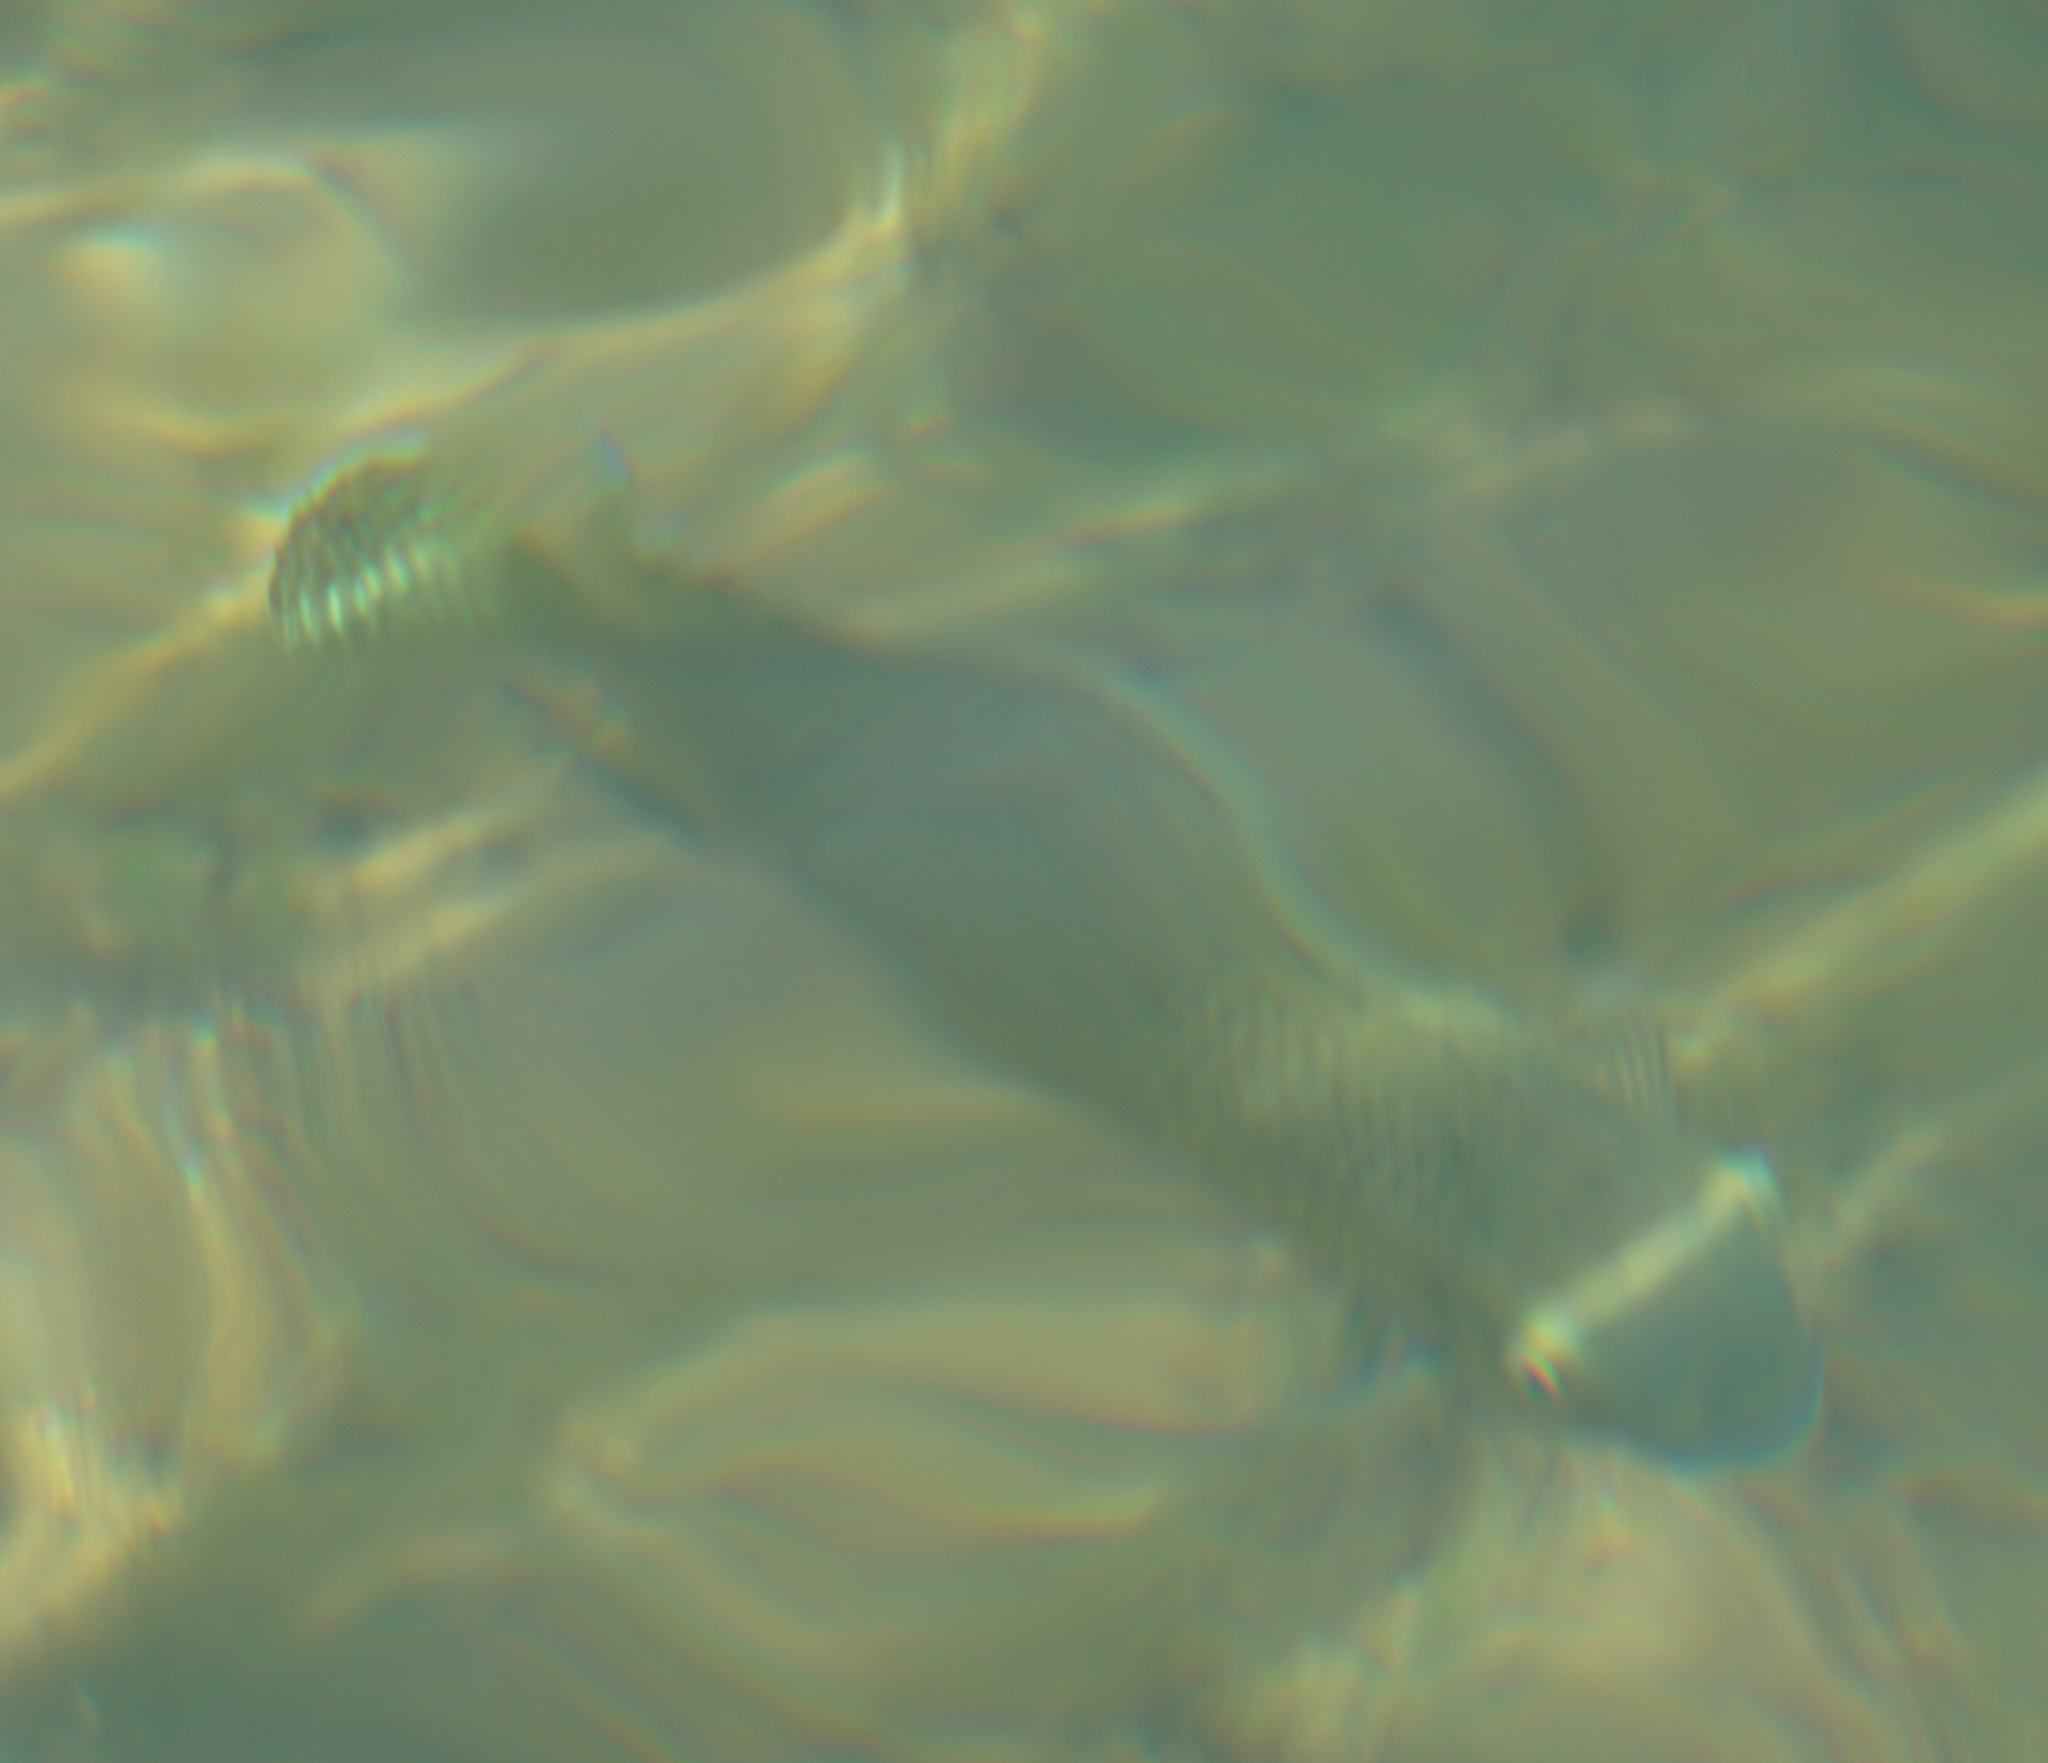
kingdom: Animalia
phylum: Chordata
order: Perciformes
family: Cichlidae
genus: Pelmatolapia
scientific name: Pelmatolapia mariae
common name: Spotted tilapia
